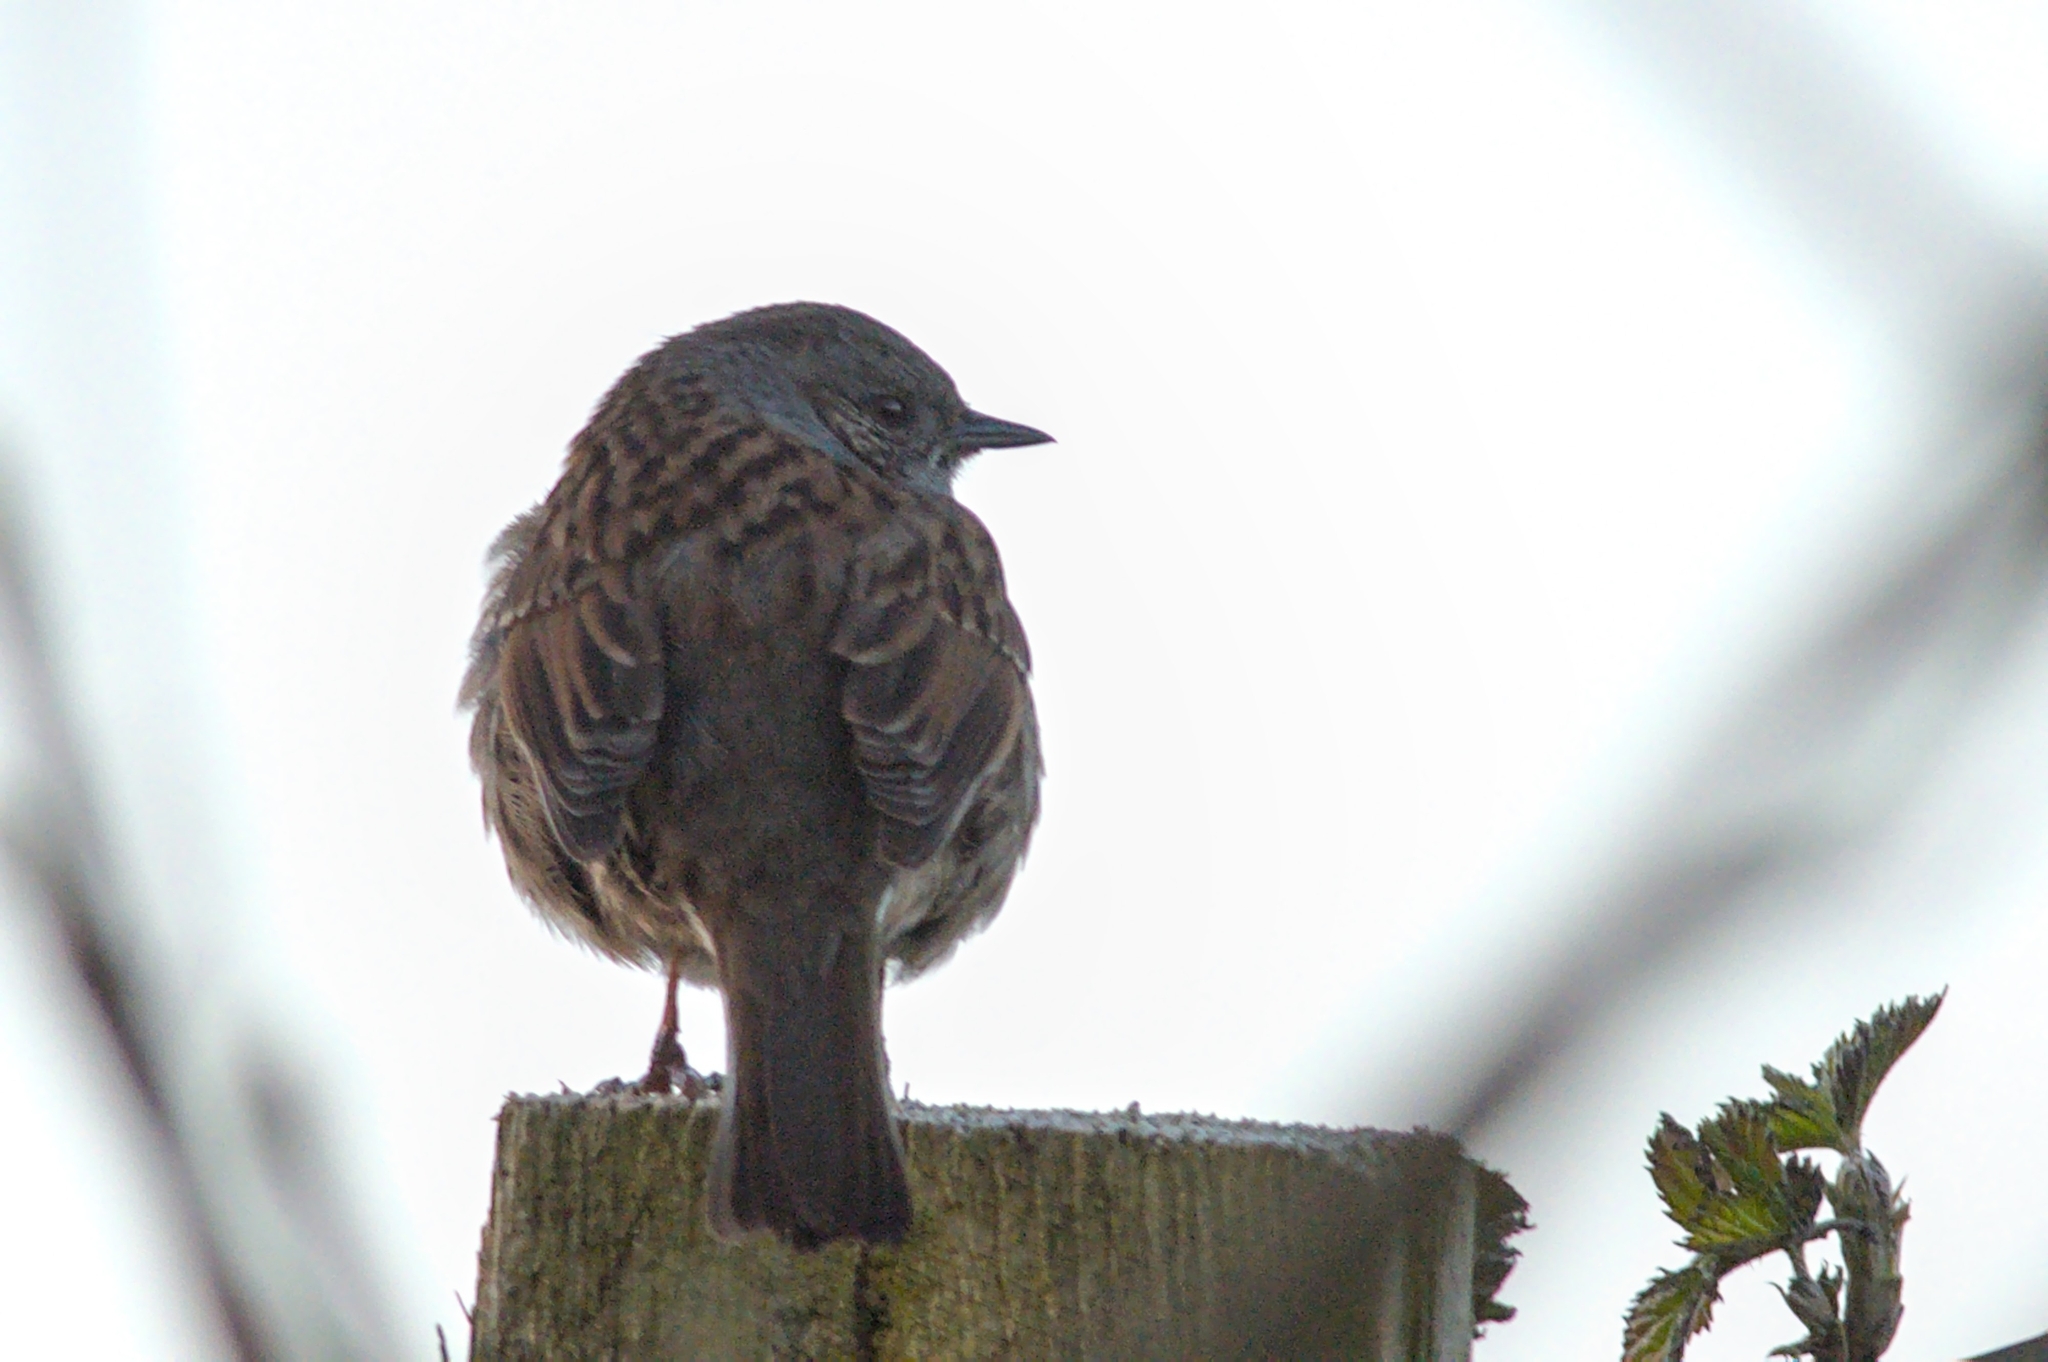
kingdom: Animalia
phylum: Chordata
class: Aves
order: Passeriformes
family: Prunellidae
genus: Prunella
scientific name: Prunella modularis
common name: Dunnock
